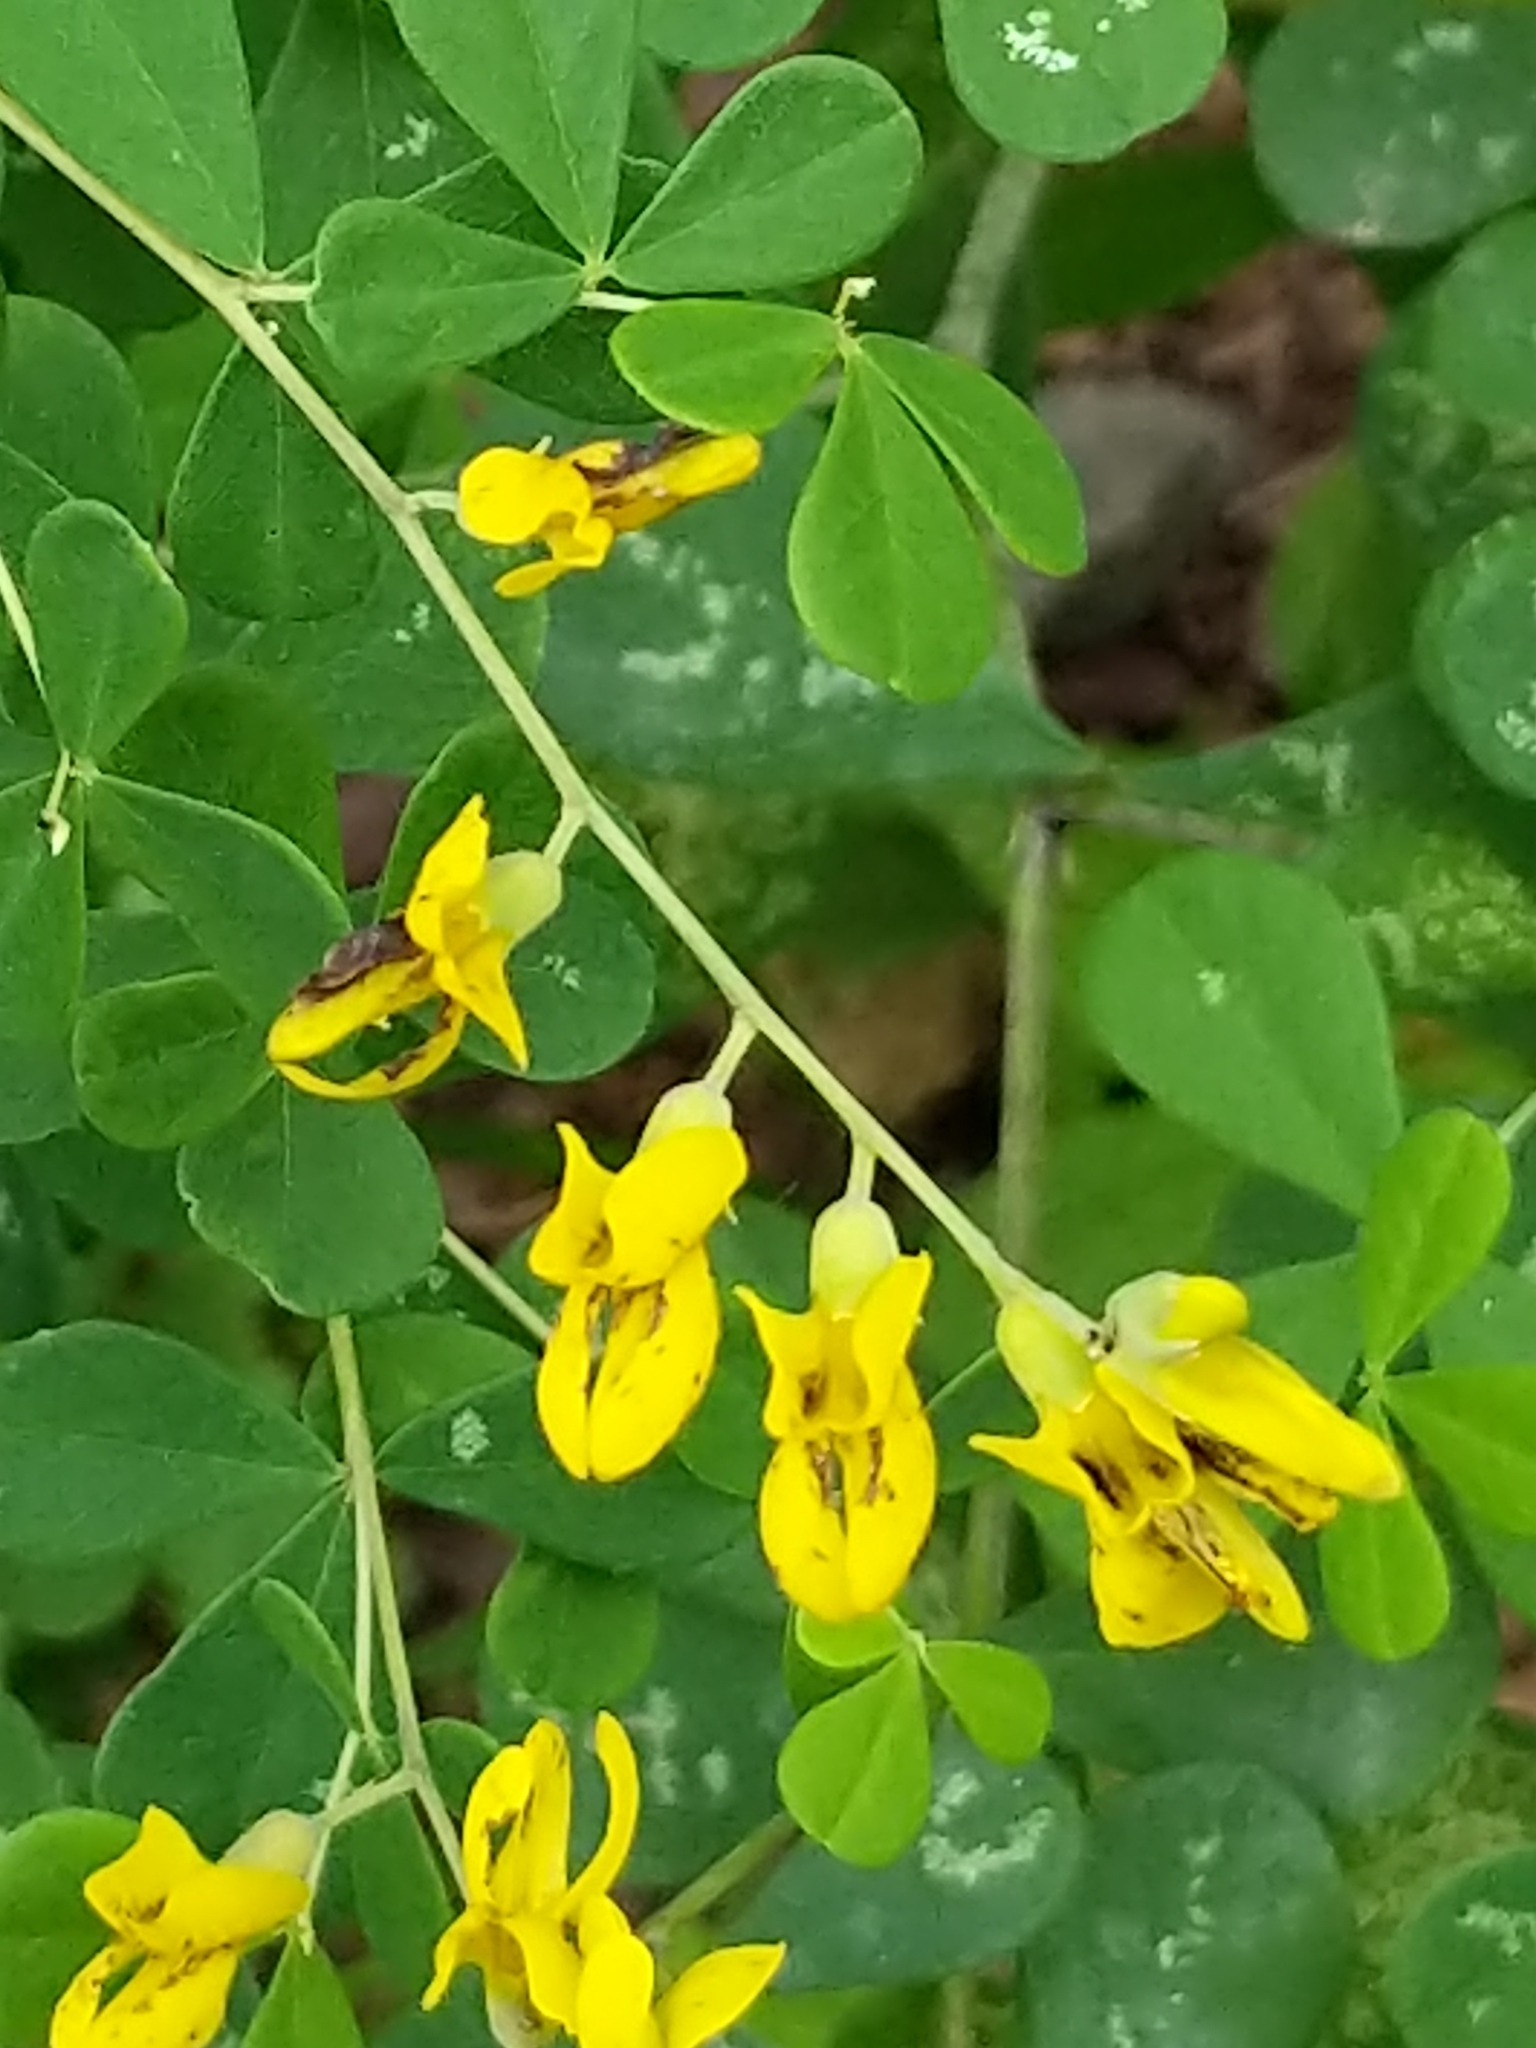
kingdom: Plantae
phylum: Tracheophyta
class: Magnoliopsida
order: Fabales
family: Fabaceae
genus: Baptisia
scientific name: Baptisia tinctoria
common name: Wild indigo
